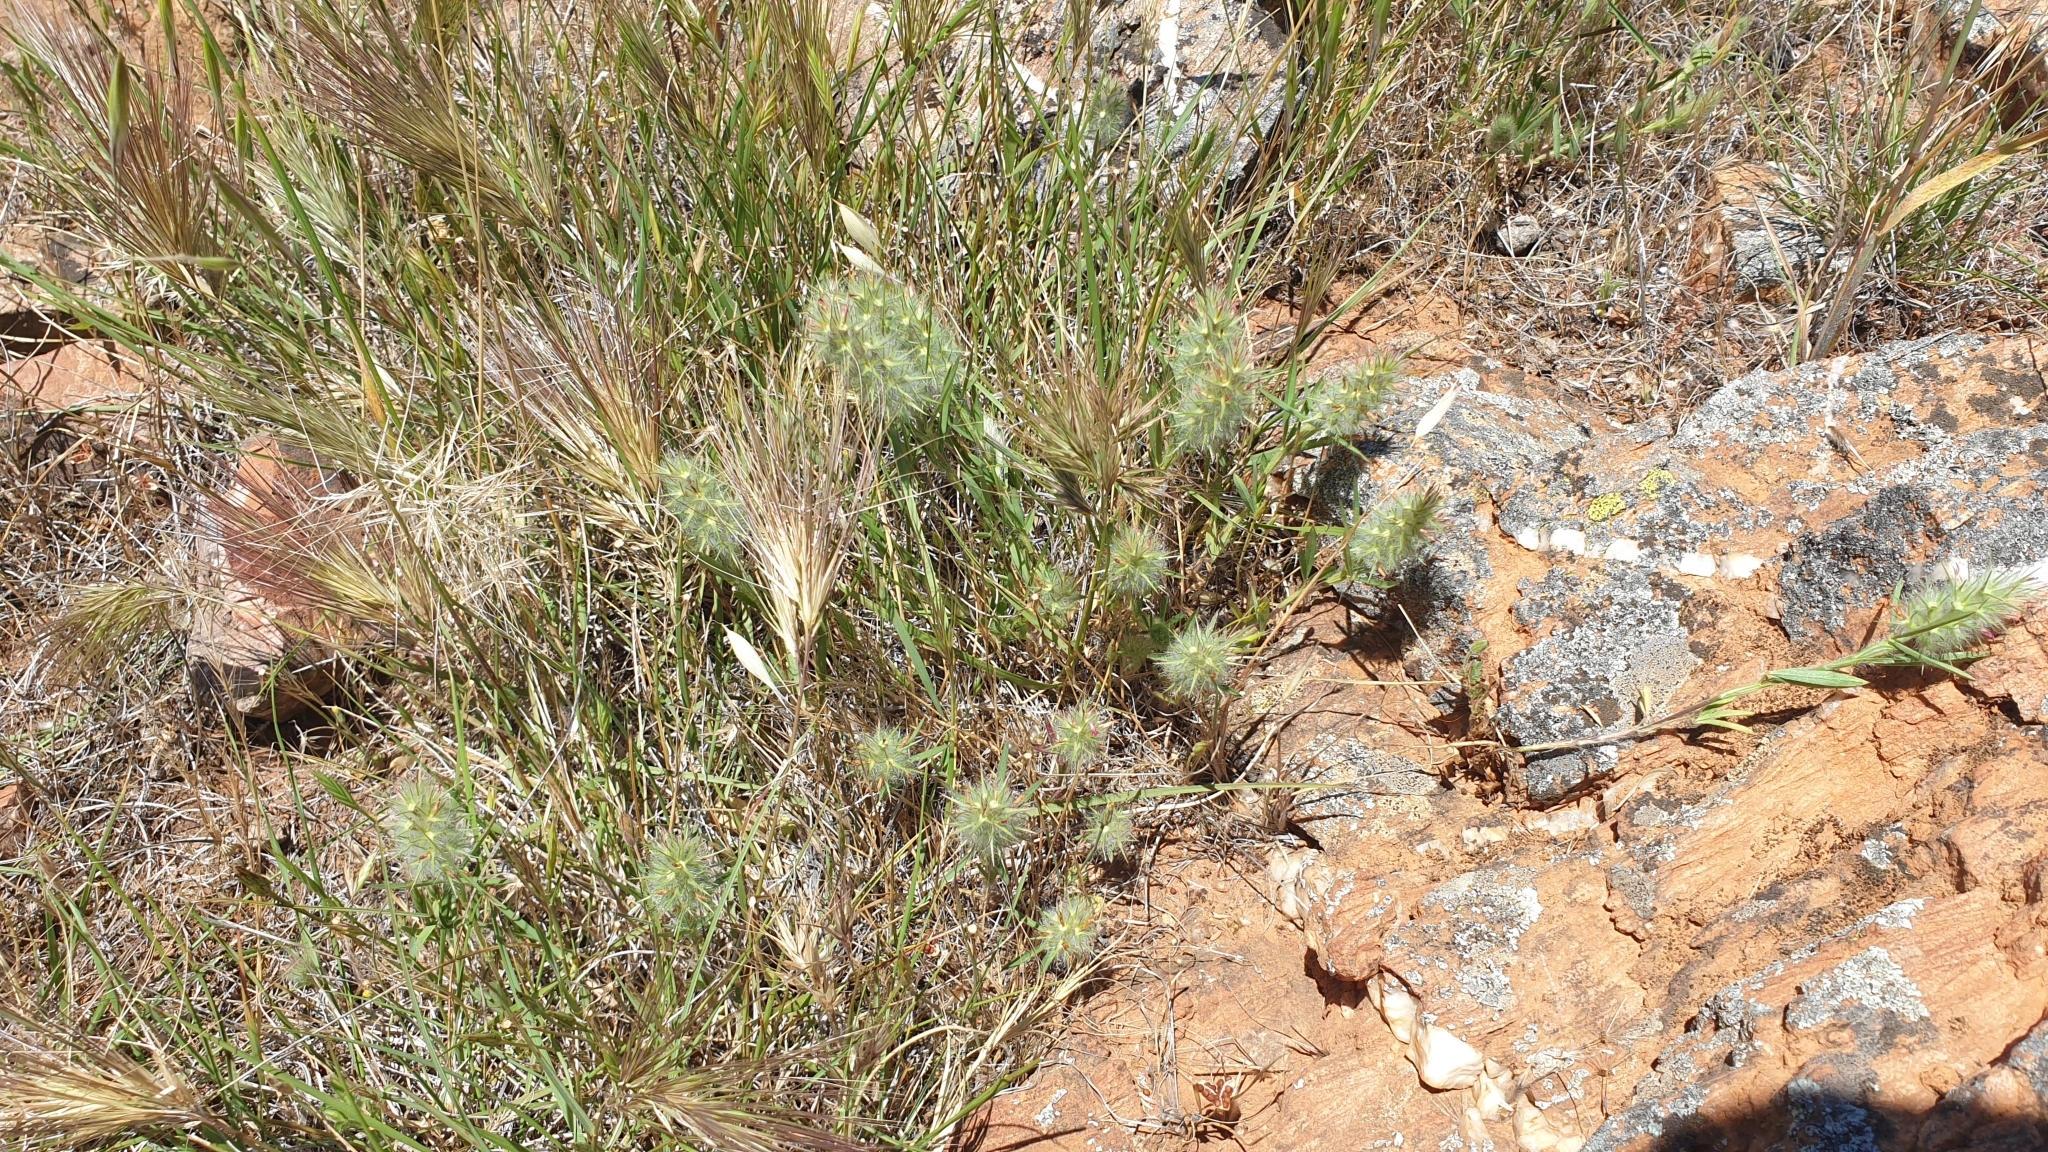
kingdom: Plantae
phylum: Tracheophyta
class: Magnoliopsida
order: Fabales
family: Fabaceae
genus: Trifolium
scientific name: Trifolium angustifolium
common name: Narrow clover
